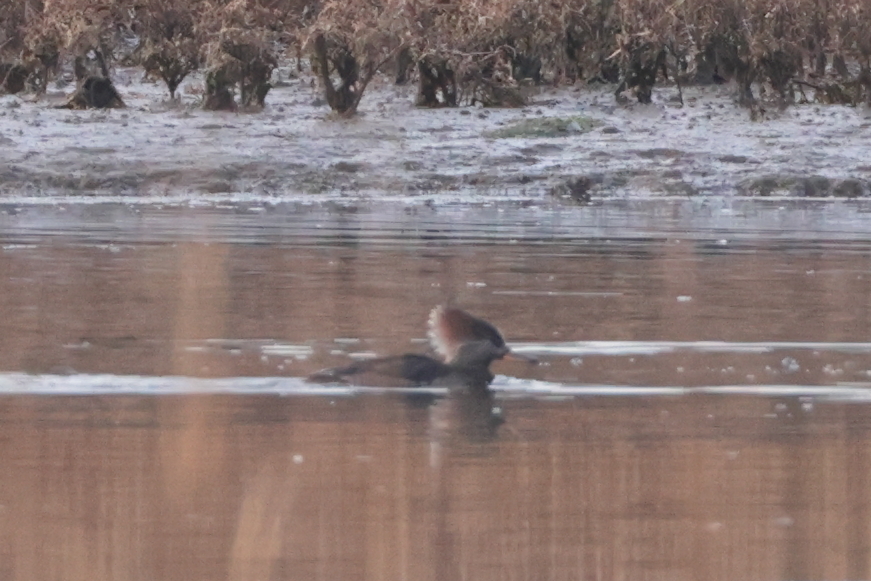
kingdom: Animalia
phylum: Chordata
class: Aves
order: Anseriformes
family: Anatidae
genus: Lophodytes
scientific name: Lophodytes cucullatus
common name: Hooded merganser
